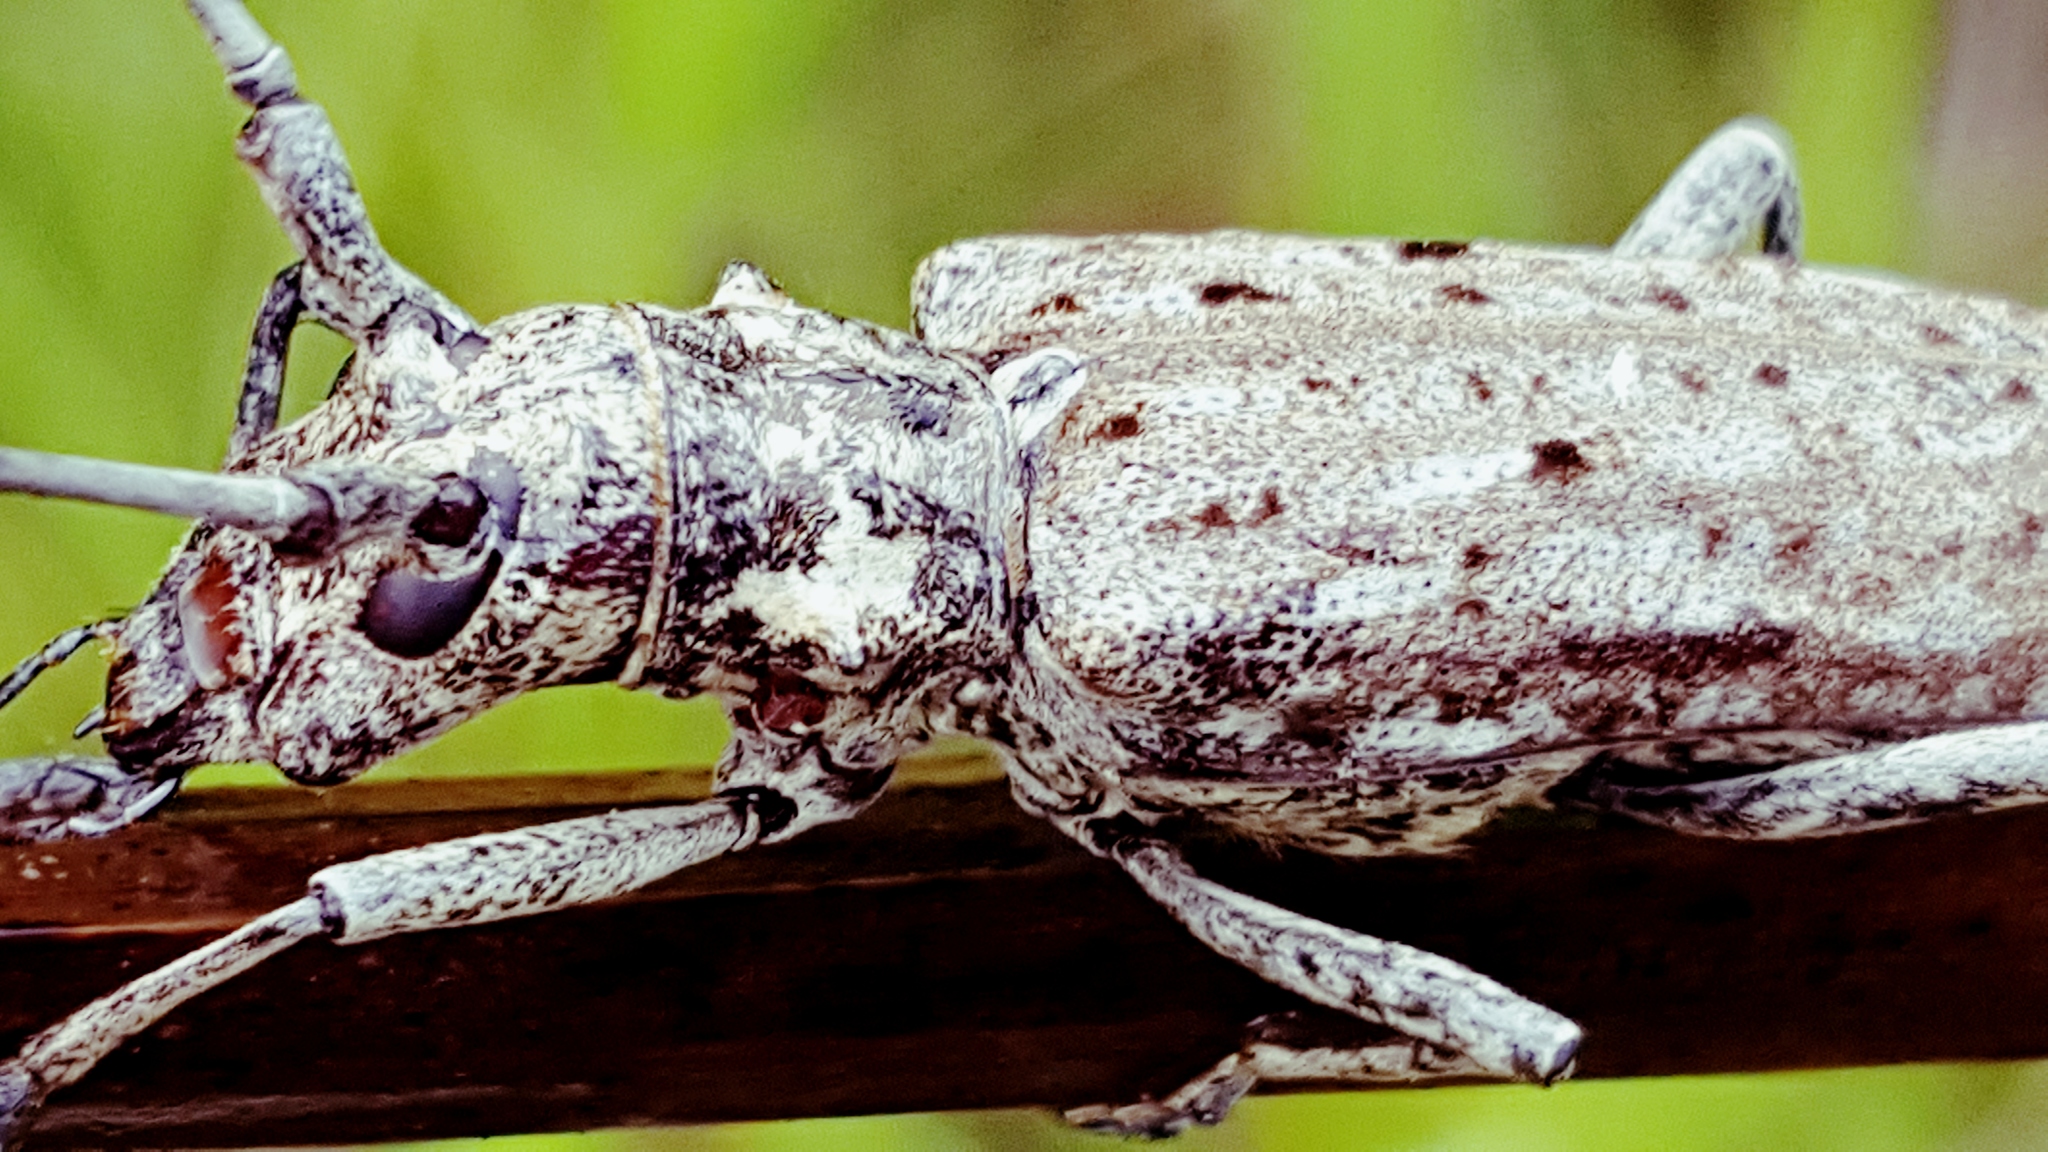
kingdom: Animalia
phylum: Arthropoda
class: Insecta
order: Coleoptera
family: Cerambycidae
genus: Monochamus
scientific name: Monochamus notatus
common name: Northeastern pine sawyer beetle
